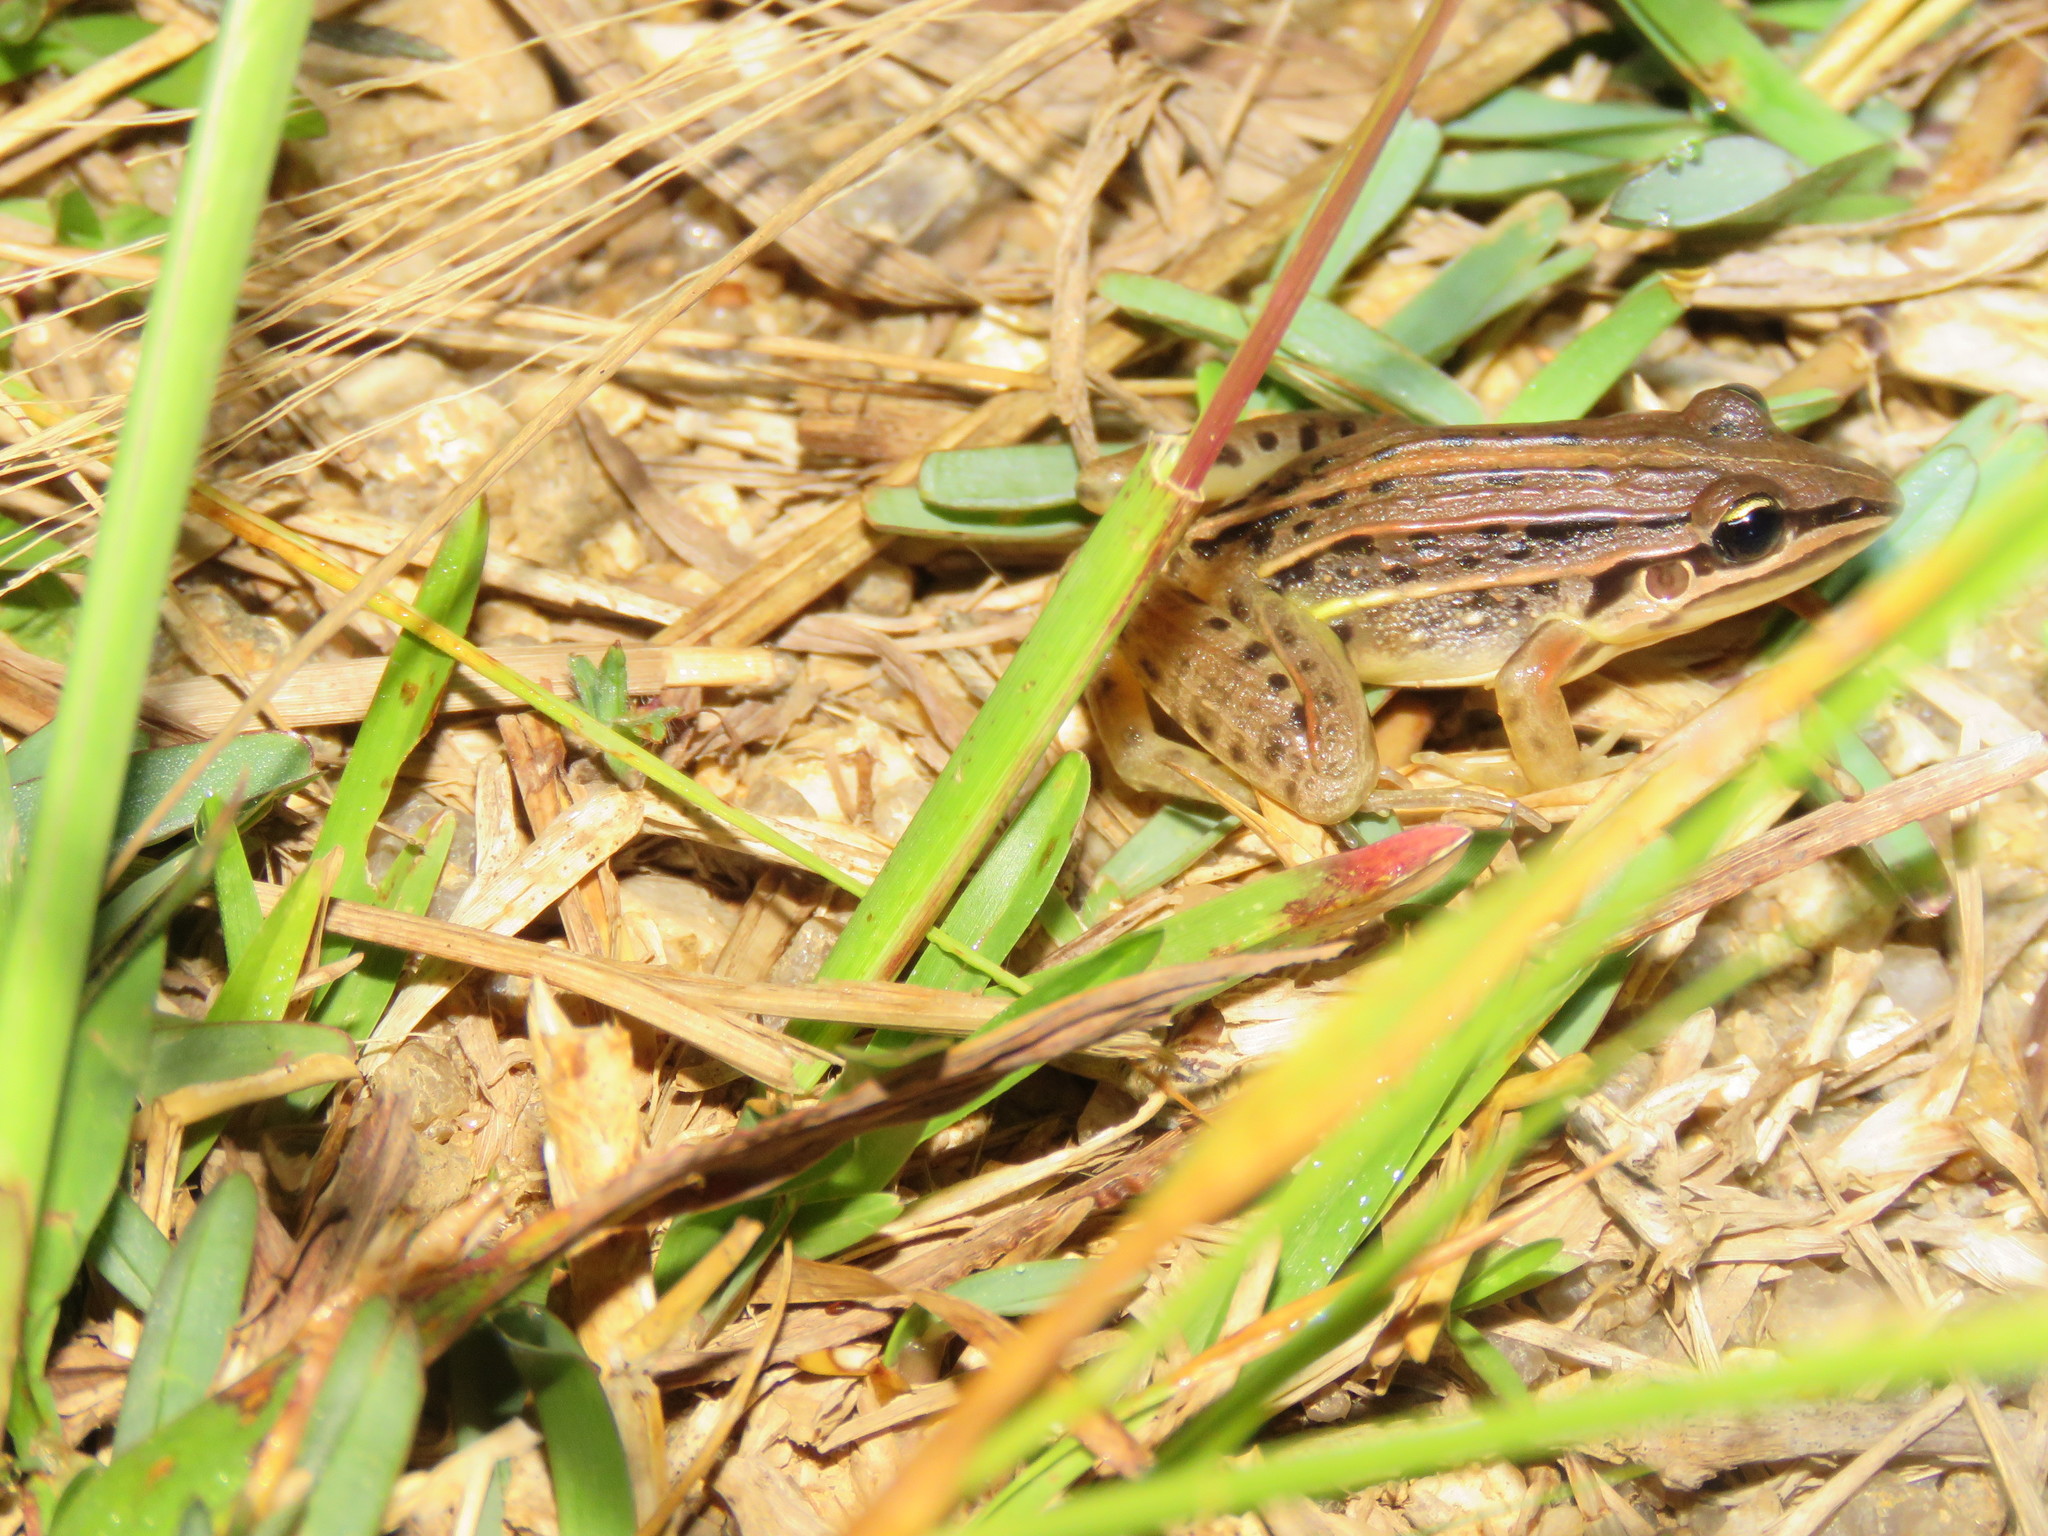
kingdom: Animalia
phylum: Chordata
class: Amphibia
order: Anura
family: Leptodactylidae
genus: Leptodactylus
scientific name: Leptodactylus gracilis
